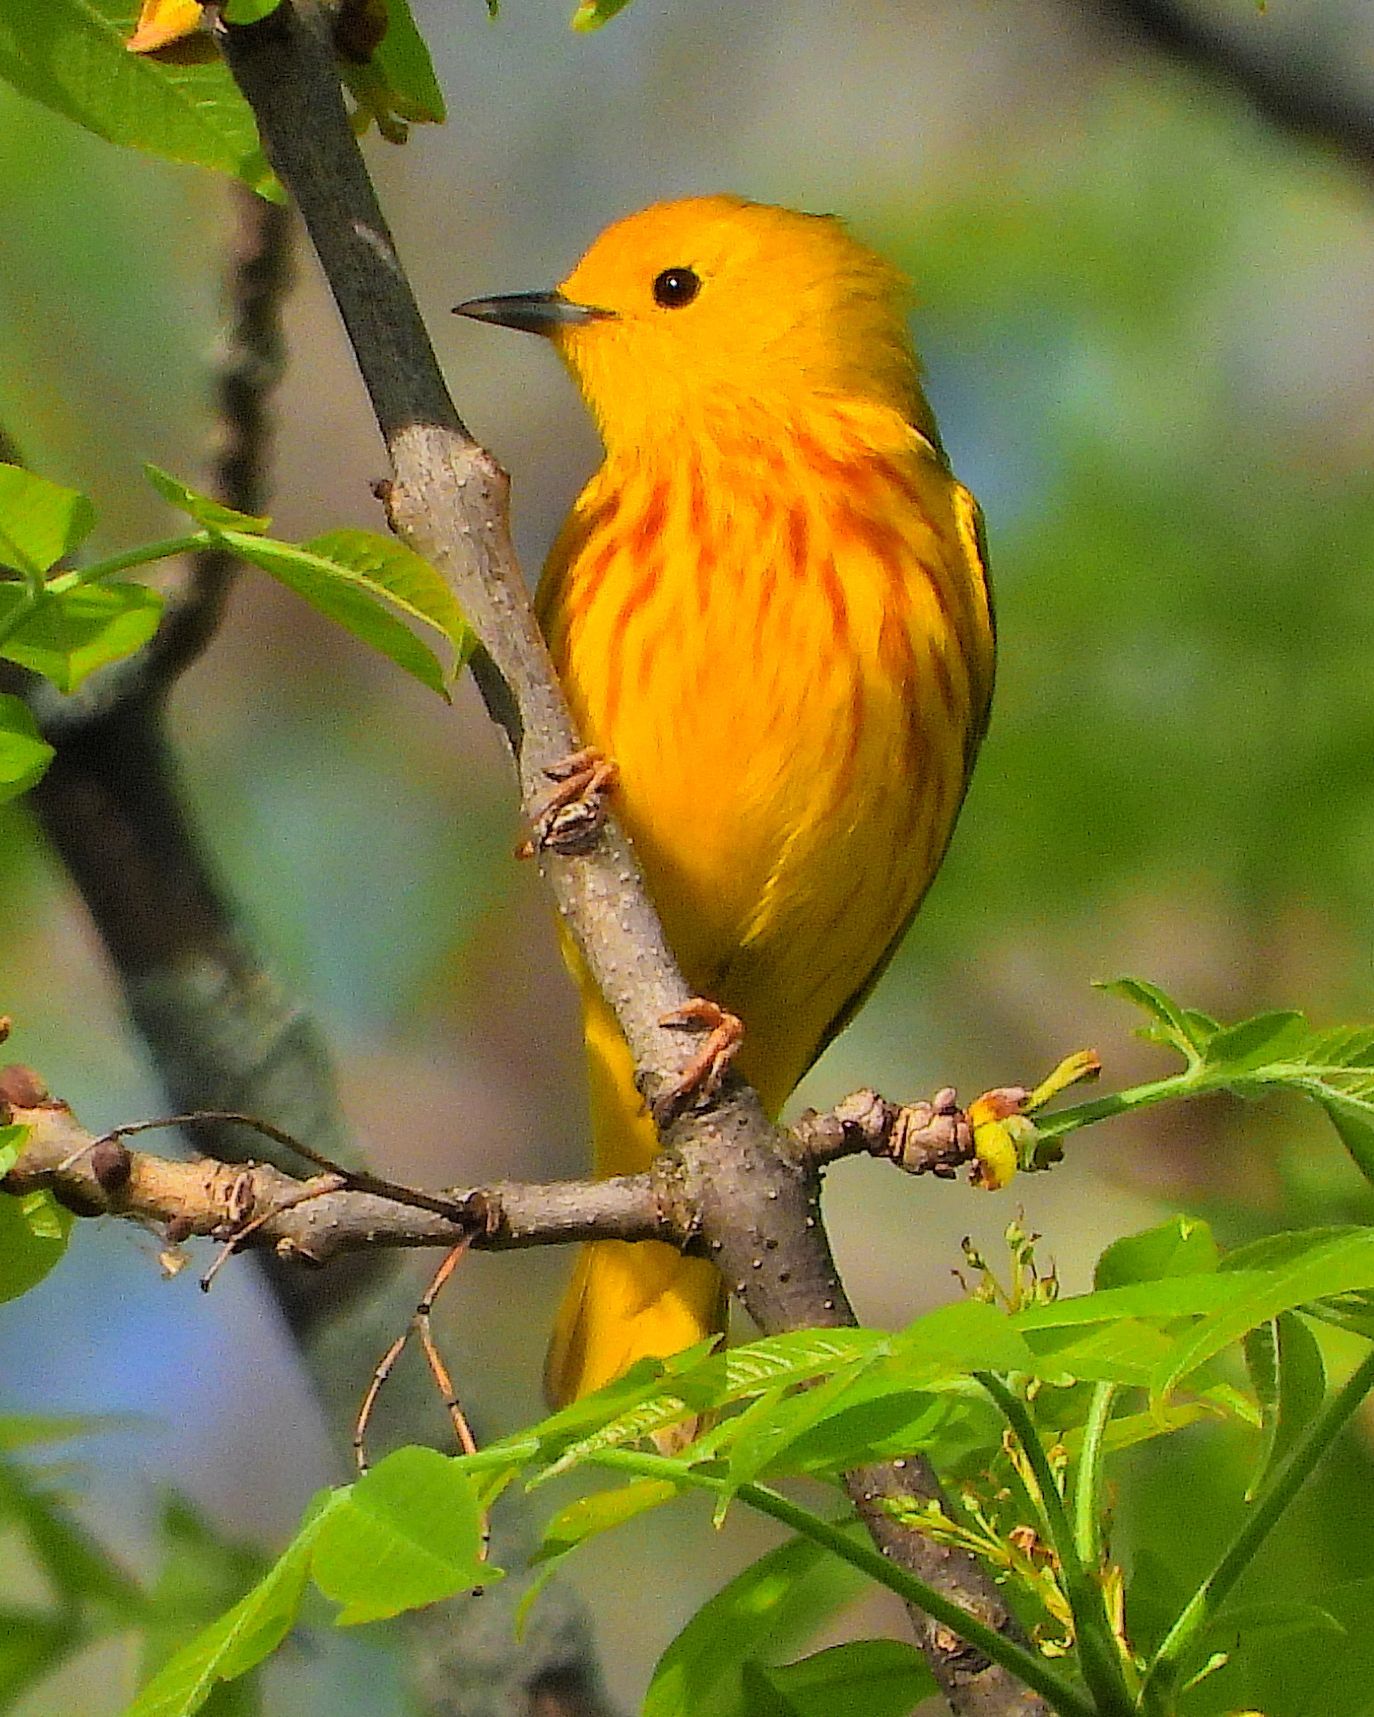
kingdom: Animalia
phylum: Chordata
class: Aves
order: Passeriformes
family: Parulidae
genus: Setophaga
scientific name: Setophaga petechia
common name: Yellow warbler
